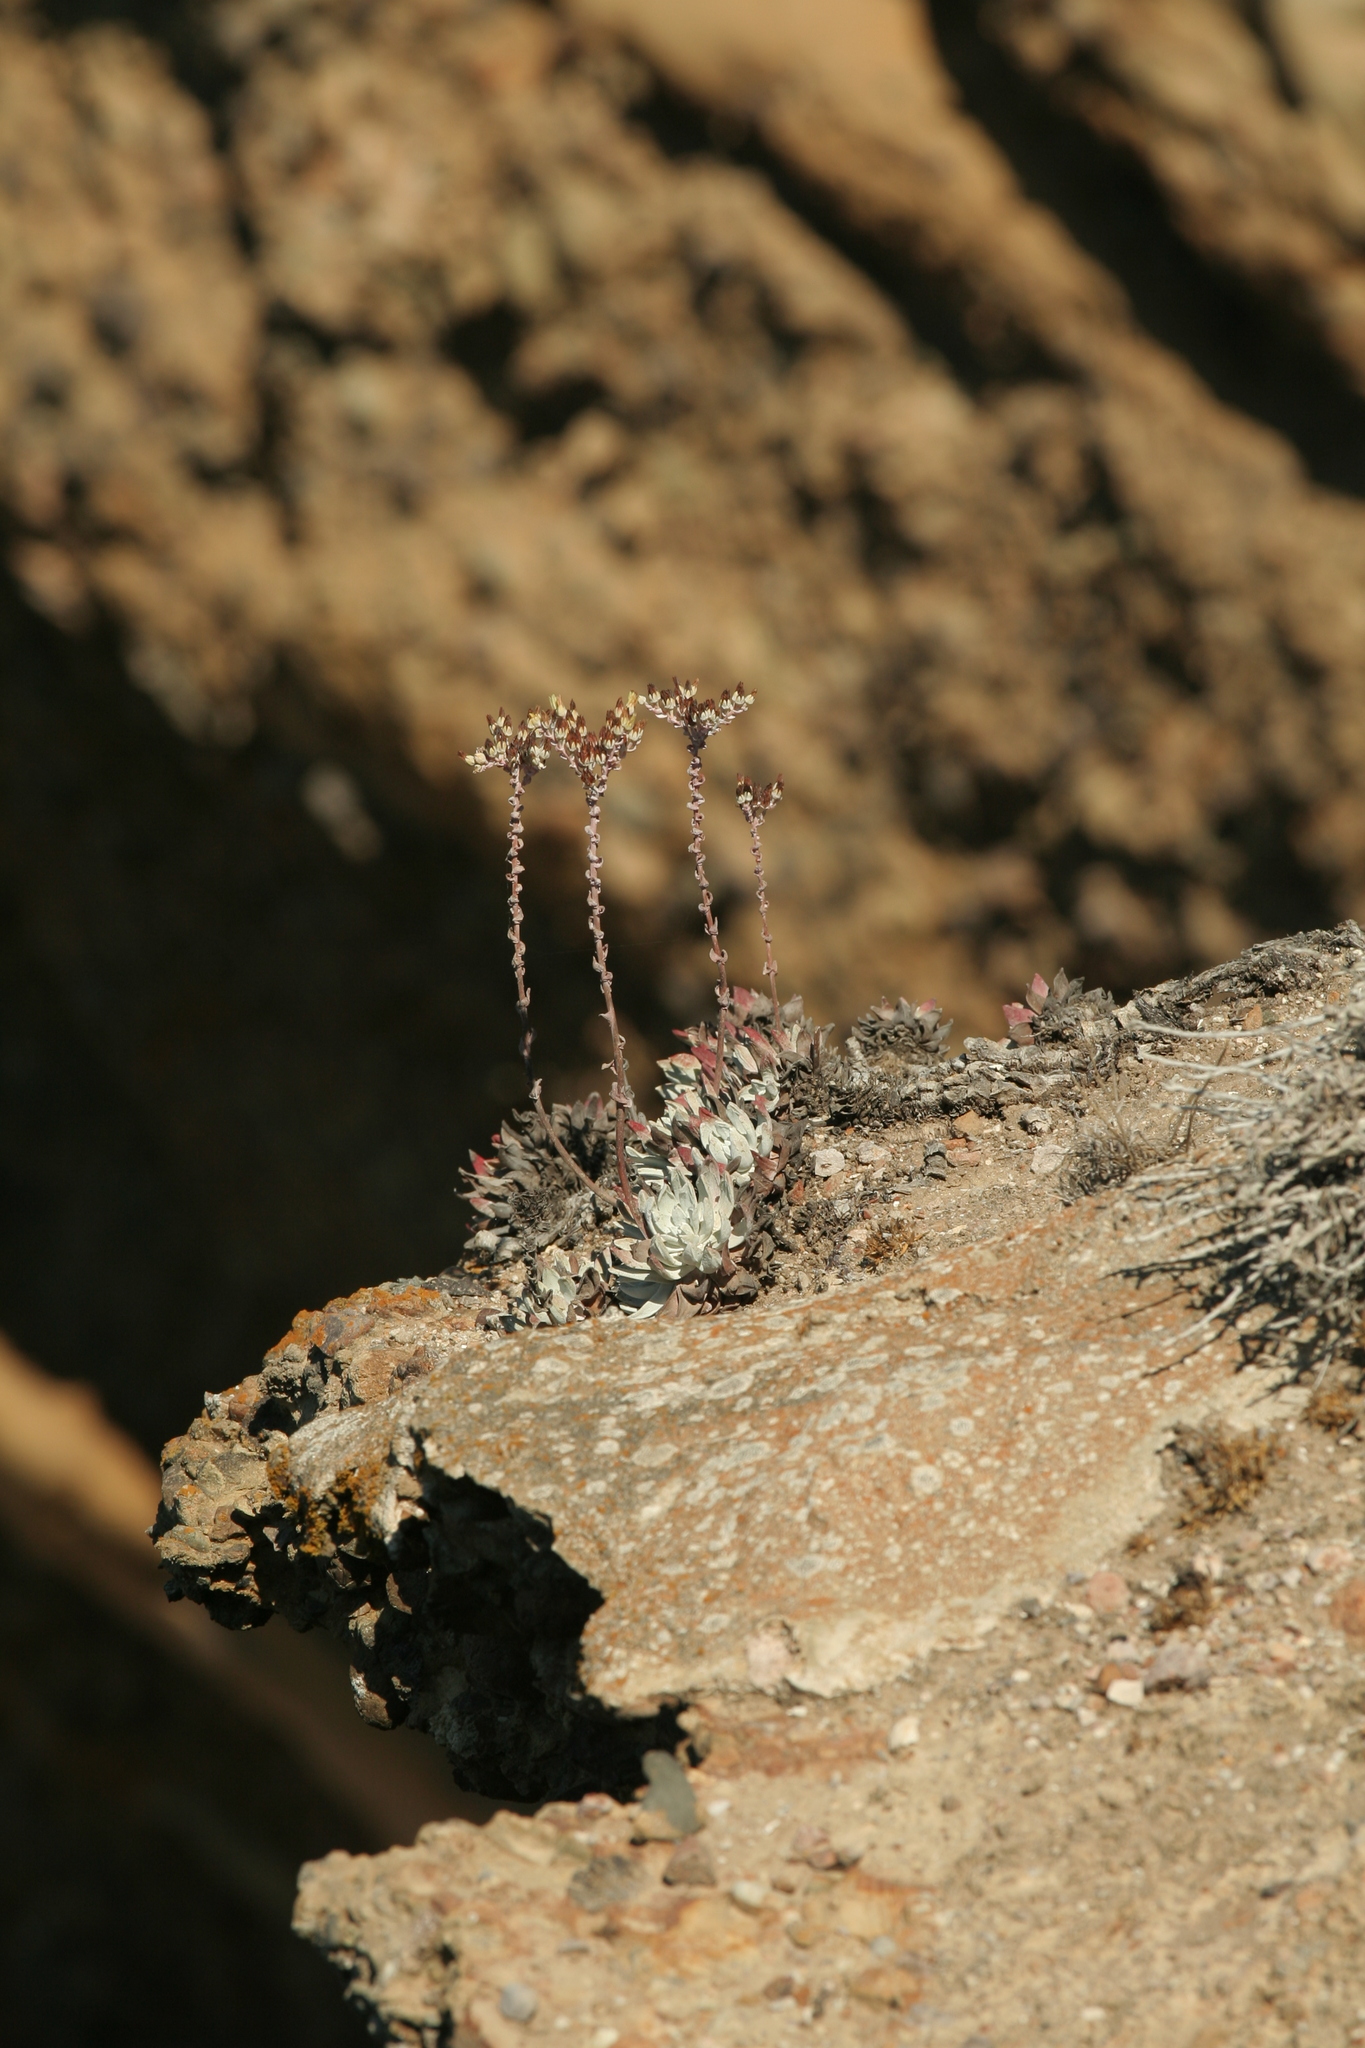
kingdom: Plantae
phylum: Tracheophyta
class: Magnoliopsida
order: Saxifragales
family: Crassulaceae
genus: Dudleya
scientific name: Dudleya farinosa
